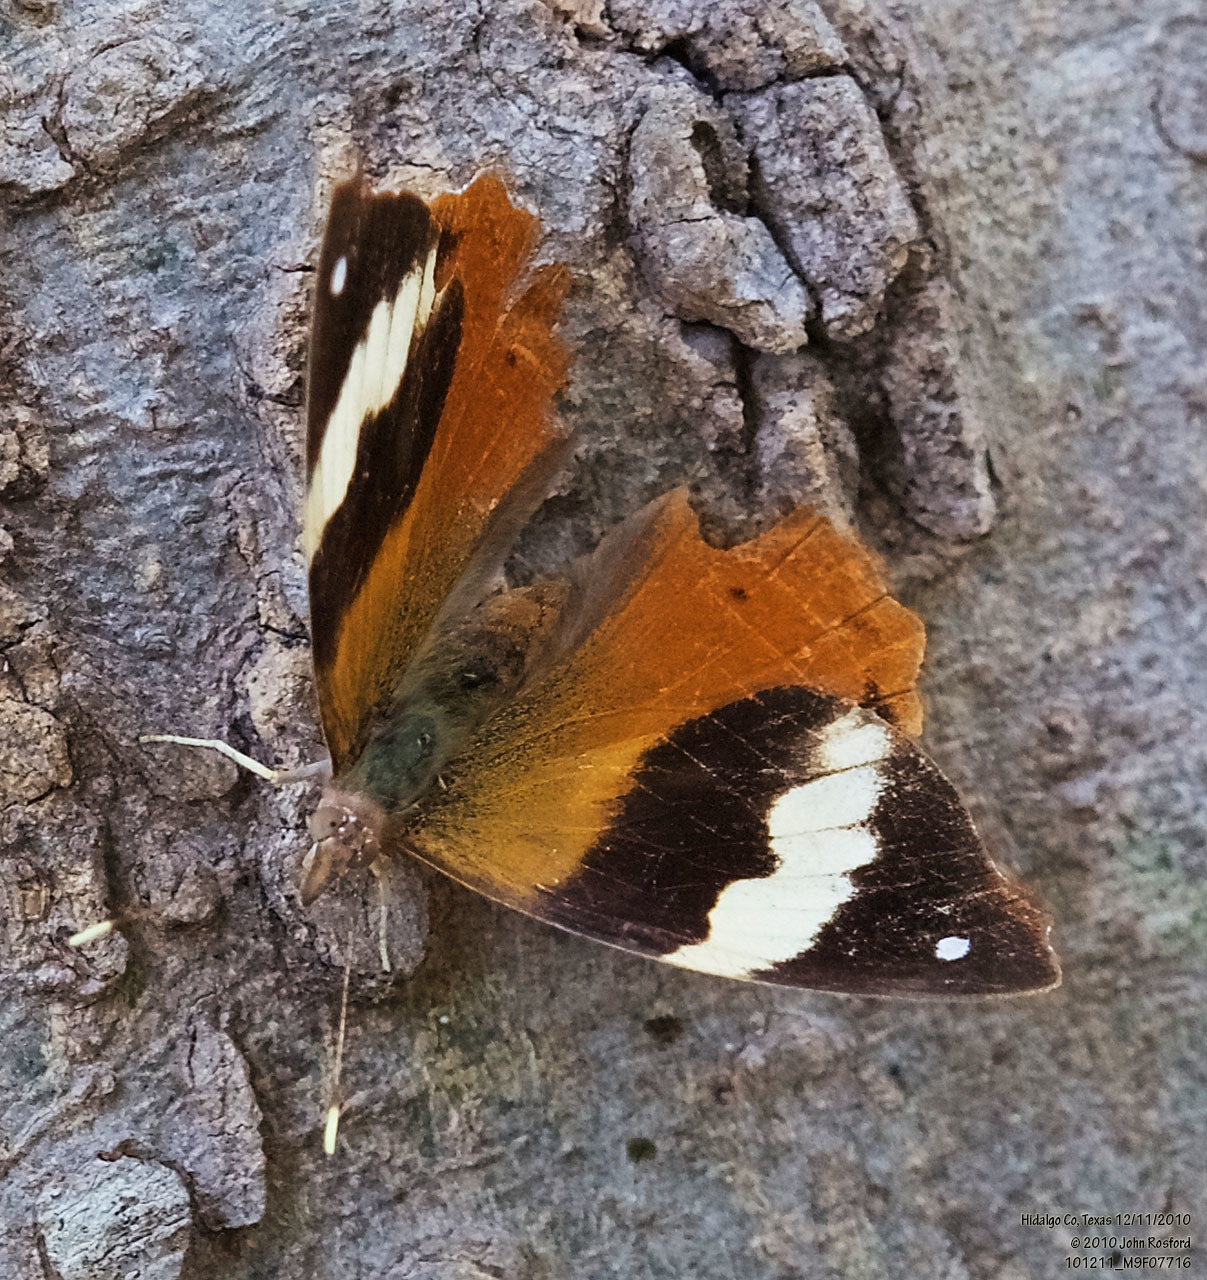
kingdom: Animalia
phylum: Arthropoda
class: Insecta
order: Lepidoptera
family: Nymphalidae
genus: Epiphile
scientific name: Epiphile adrasta
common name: Common banner
